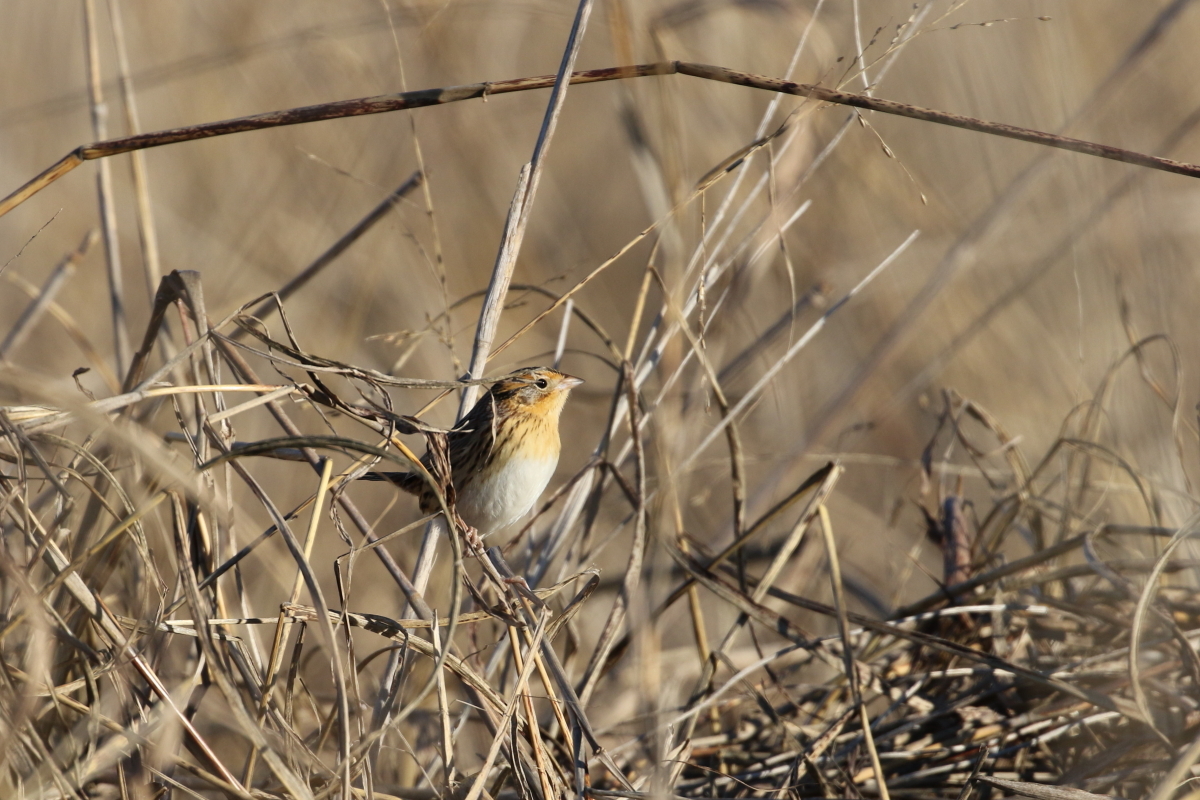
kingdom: Animalia
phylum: Chordata
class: Aves
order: Passeriformes
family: Passerellidae
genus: Ammospiza
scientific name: Ammospiza leconteii
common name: Le conte's sparrow
